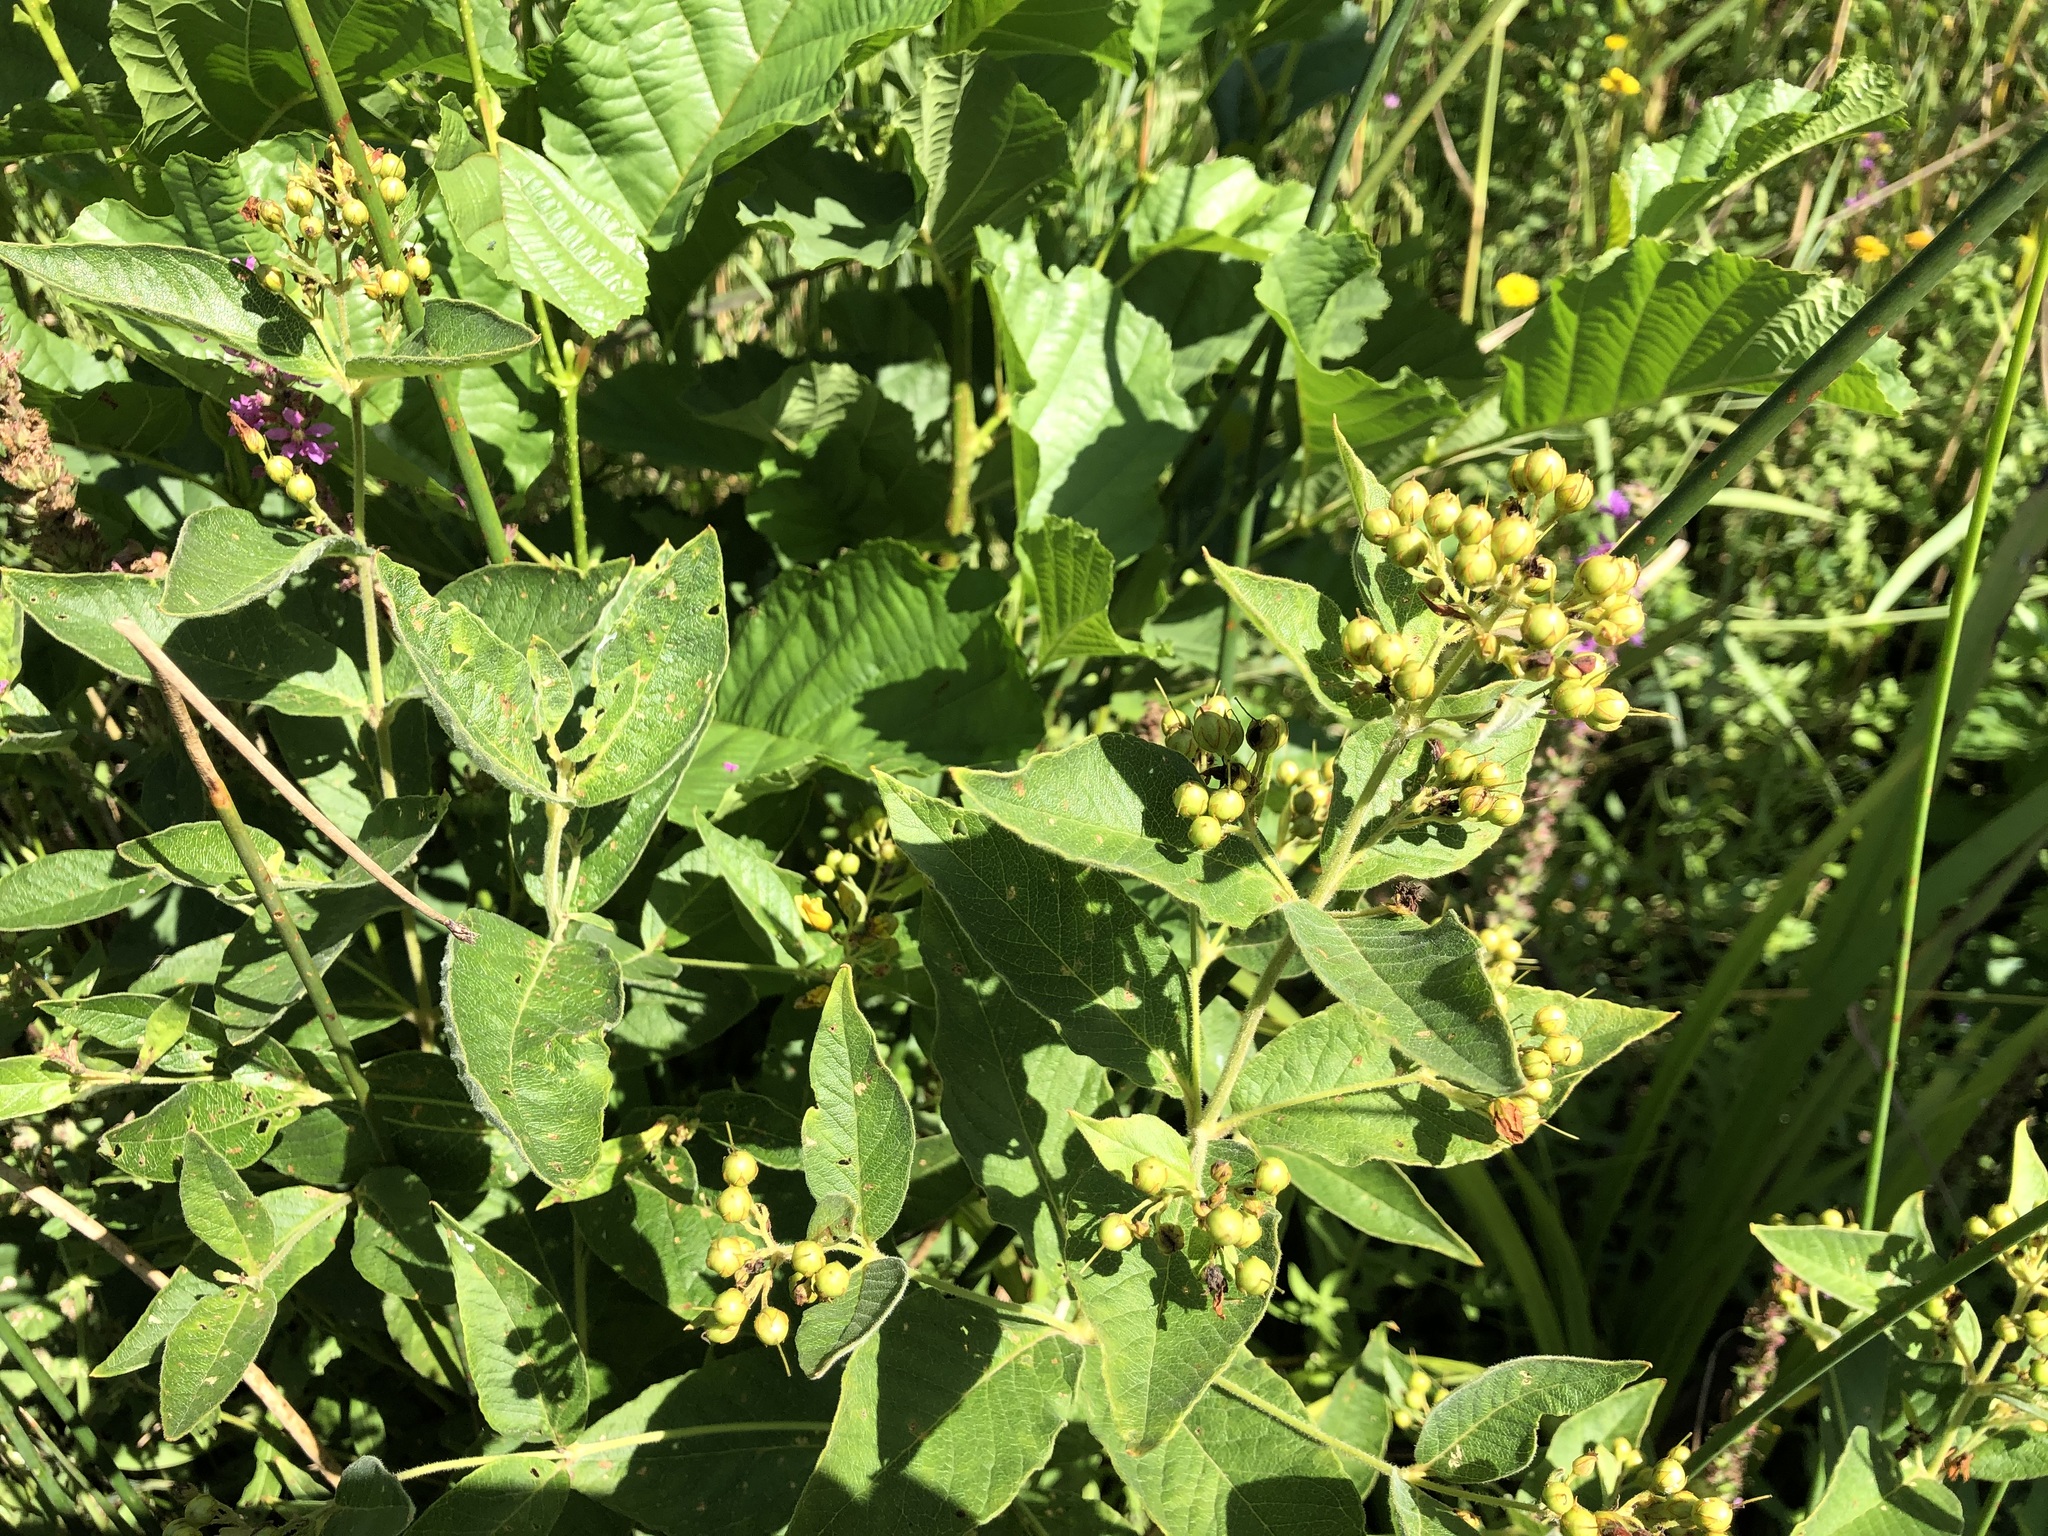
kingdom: Plantae
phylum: Tracheophyta
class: Magnoliopsida
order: Ericales
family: Primulaceae
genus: Lysimachia
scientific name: Lysimachia vulgaris
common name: Yellow loosestrife
